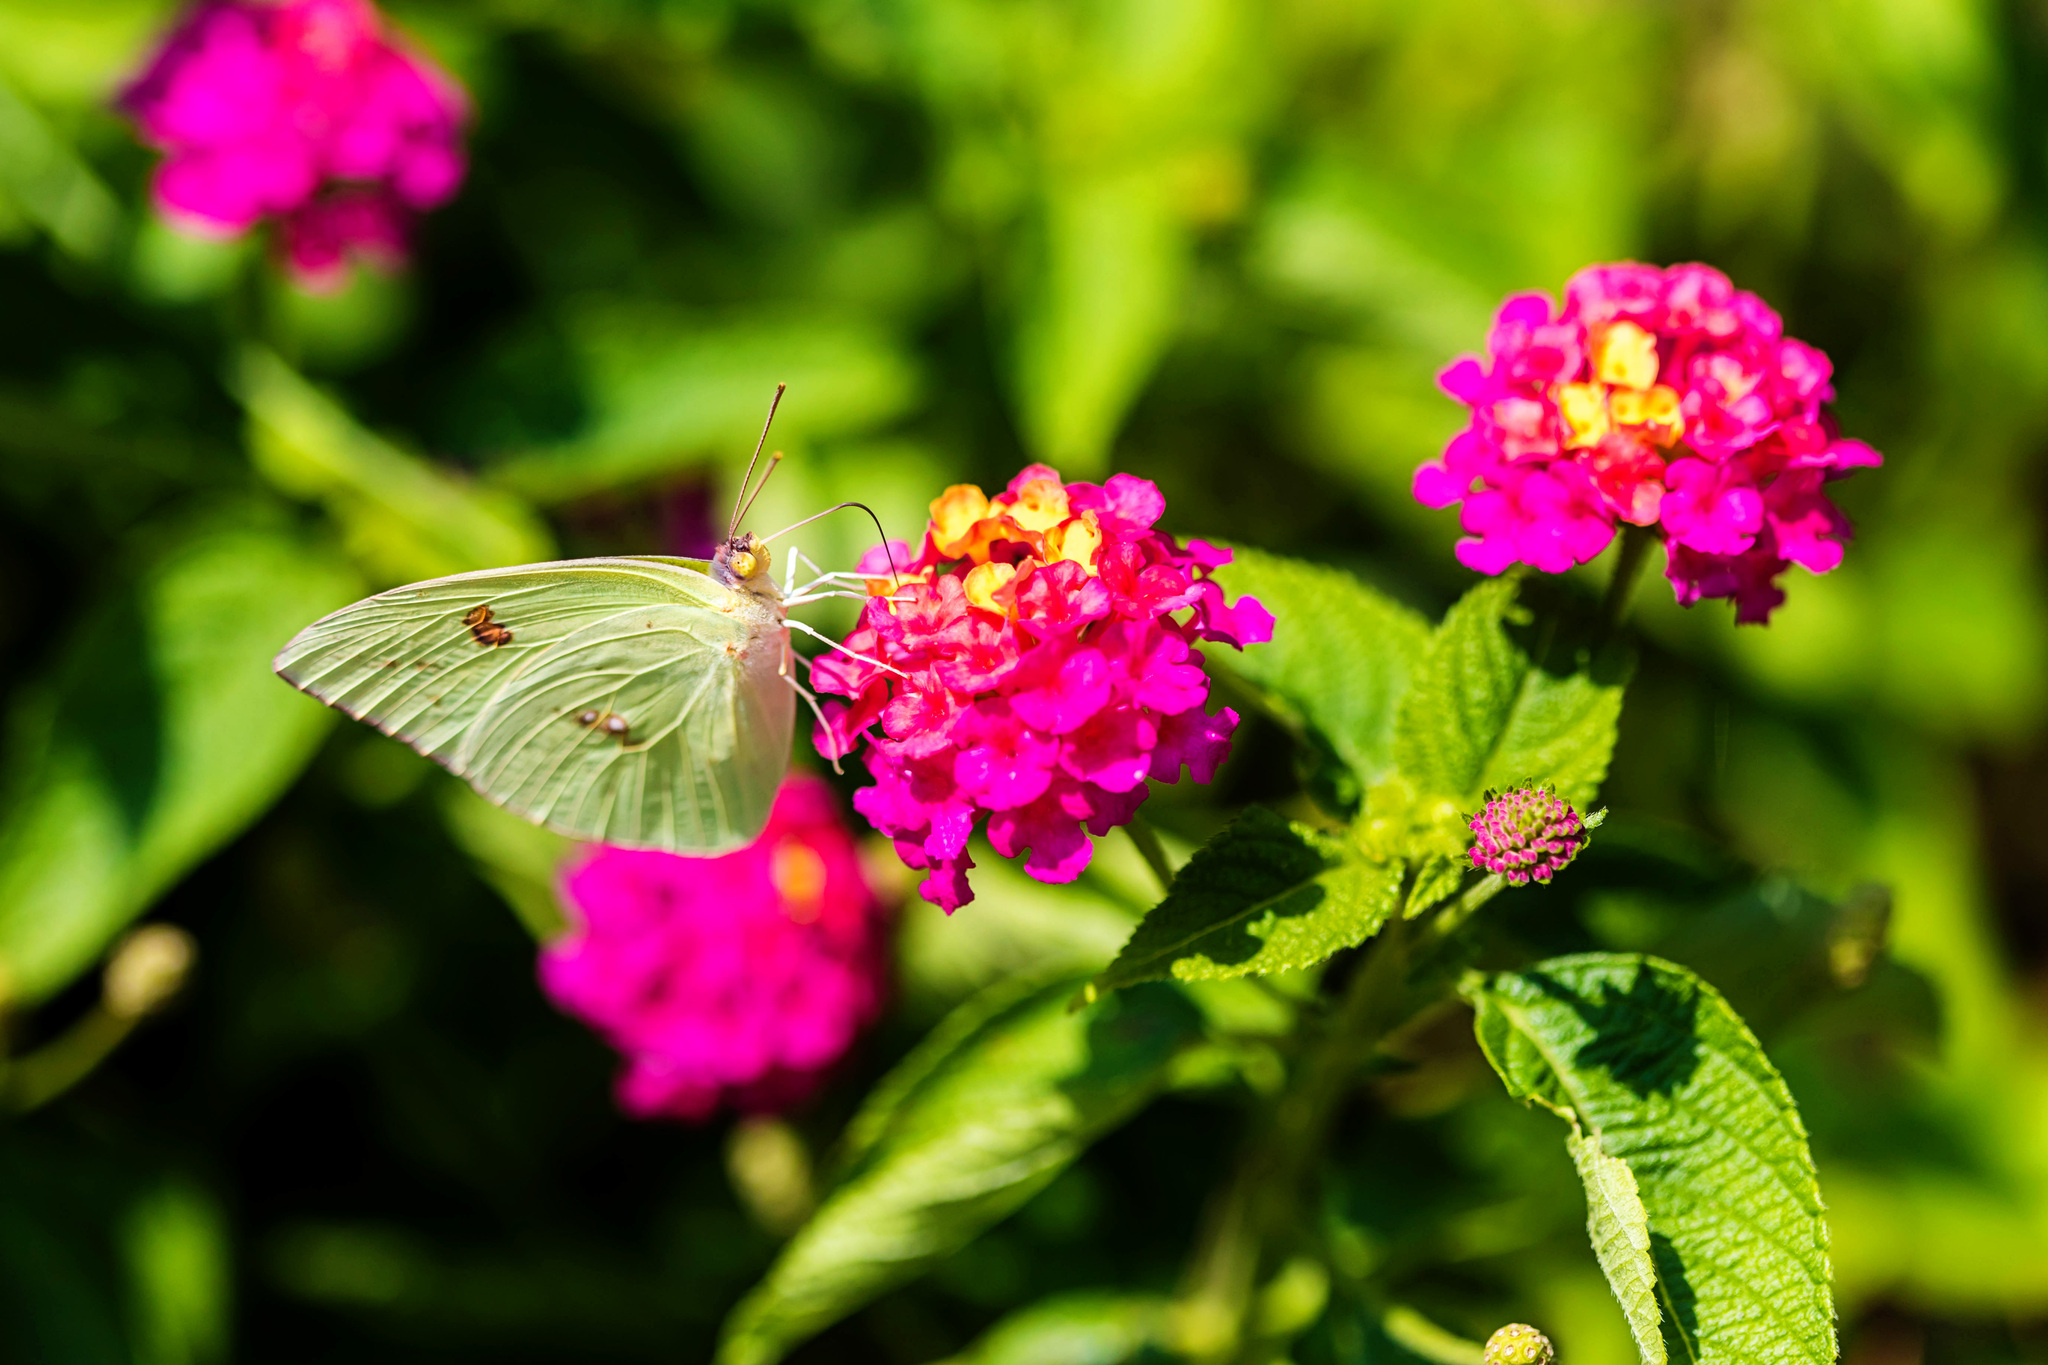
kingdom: Animalia
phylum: Arthropoda
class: Insecta
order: Lepidoptera
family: Pieridae
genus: Phoebis
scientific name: Phoebis sennae
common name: Cloudless sulphur
